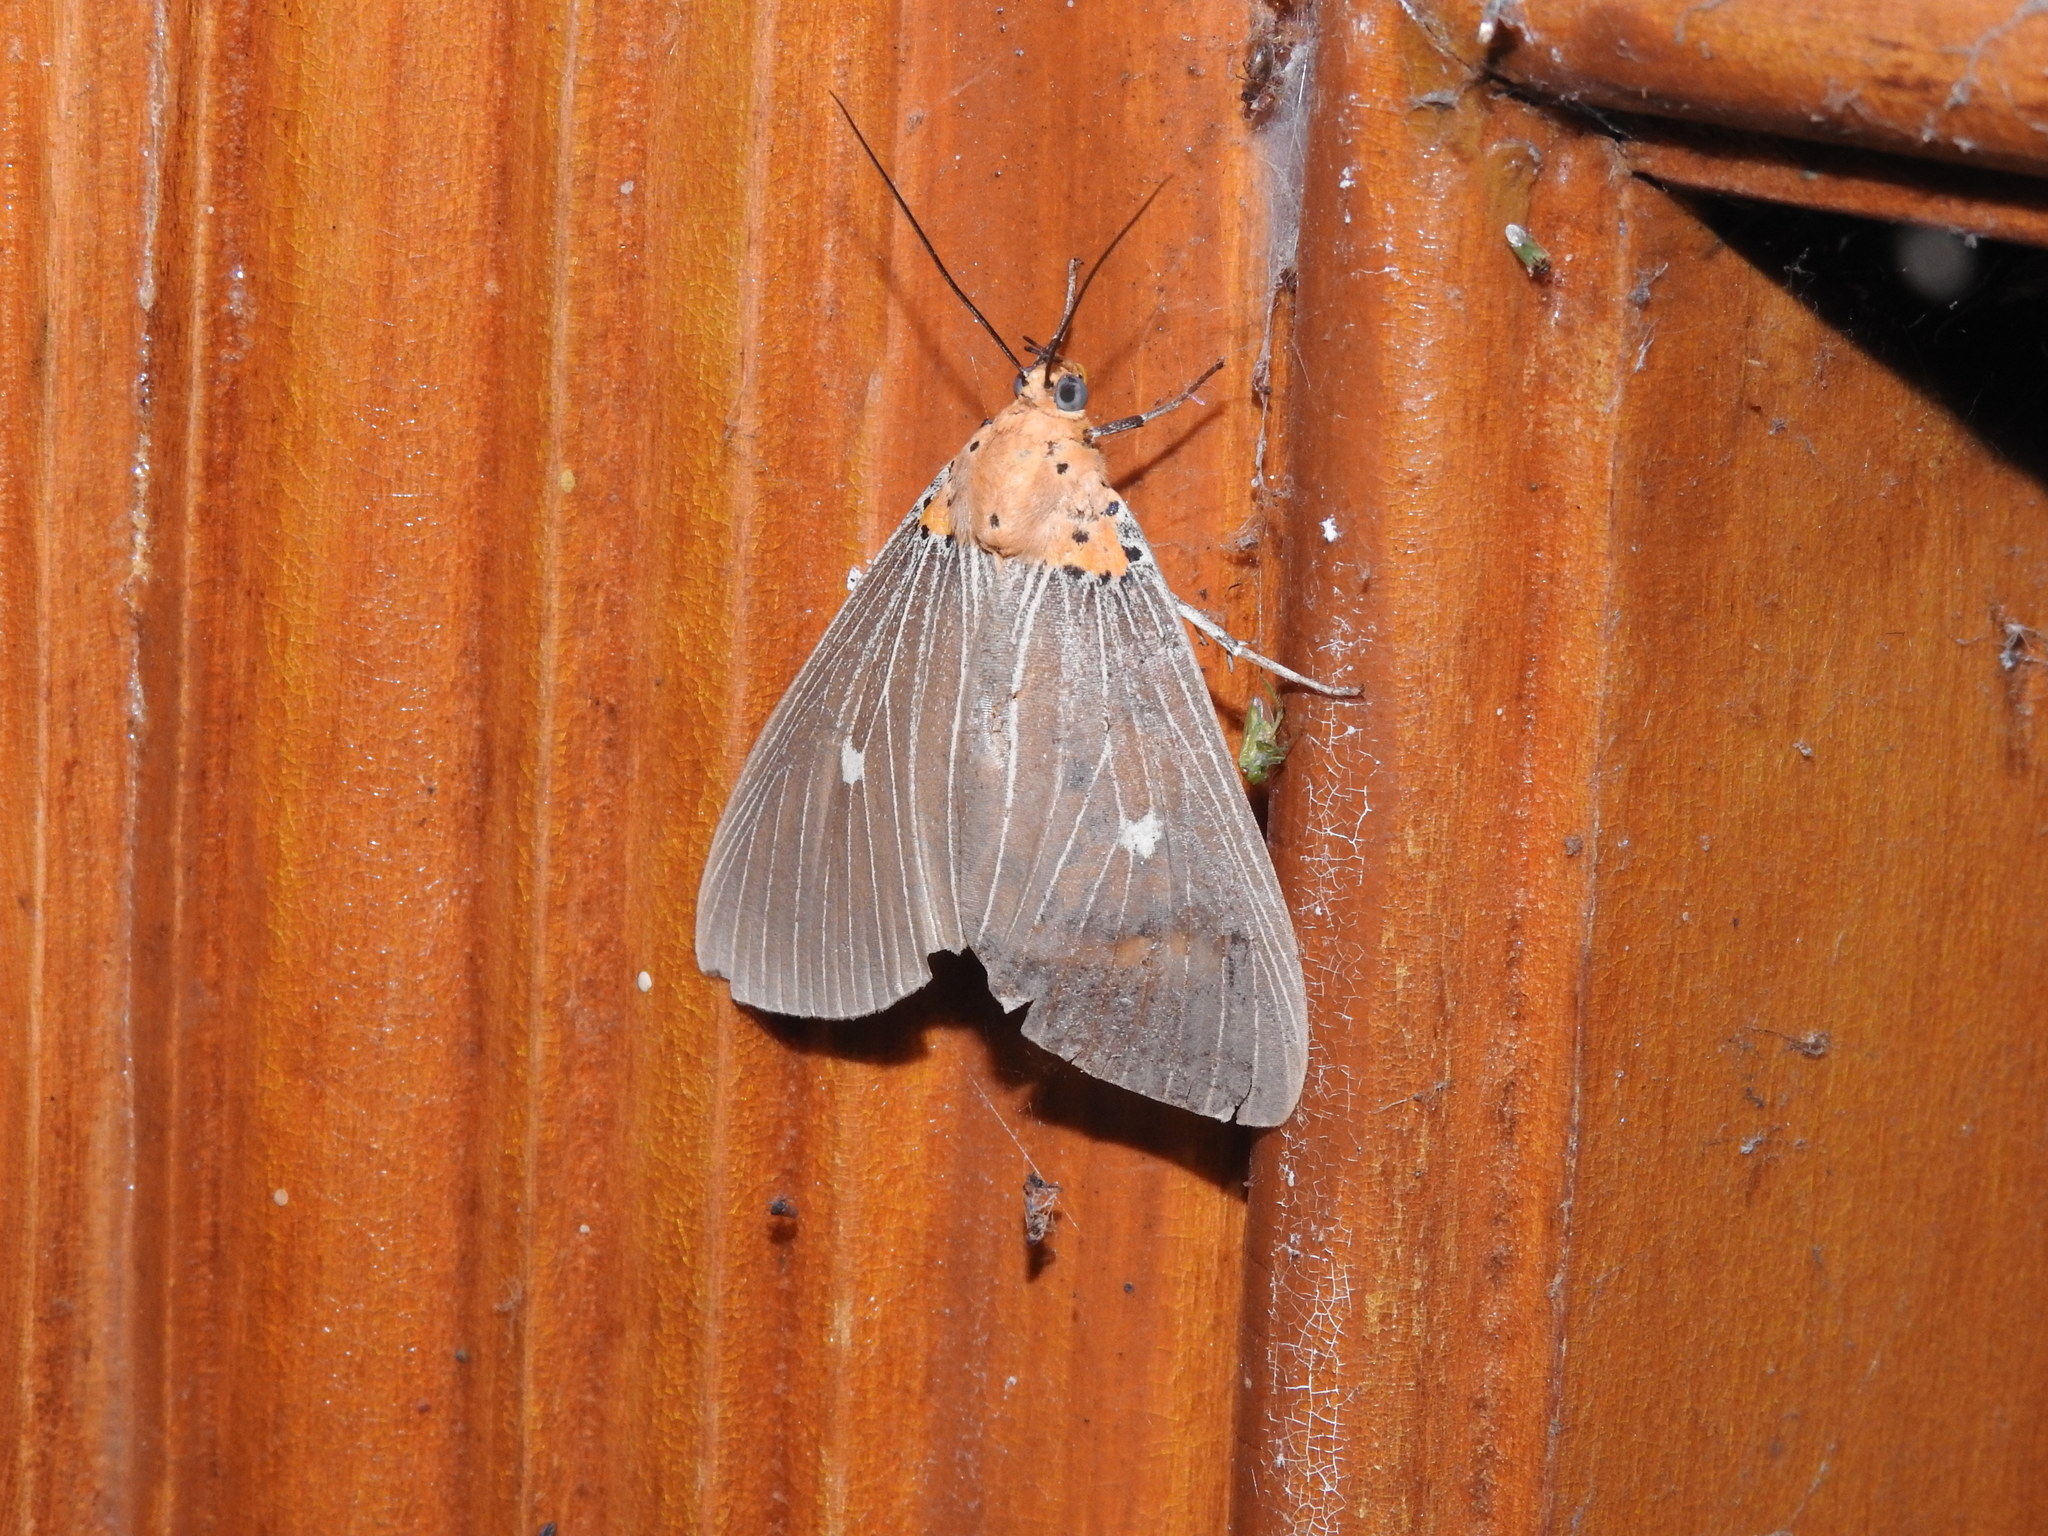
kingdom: Animalia
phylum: Arthropoda
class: Insecta
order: Lepidoptera
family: Erebidae
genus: Asota
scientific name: Asota caricae
